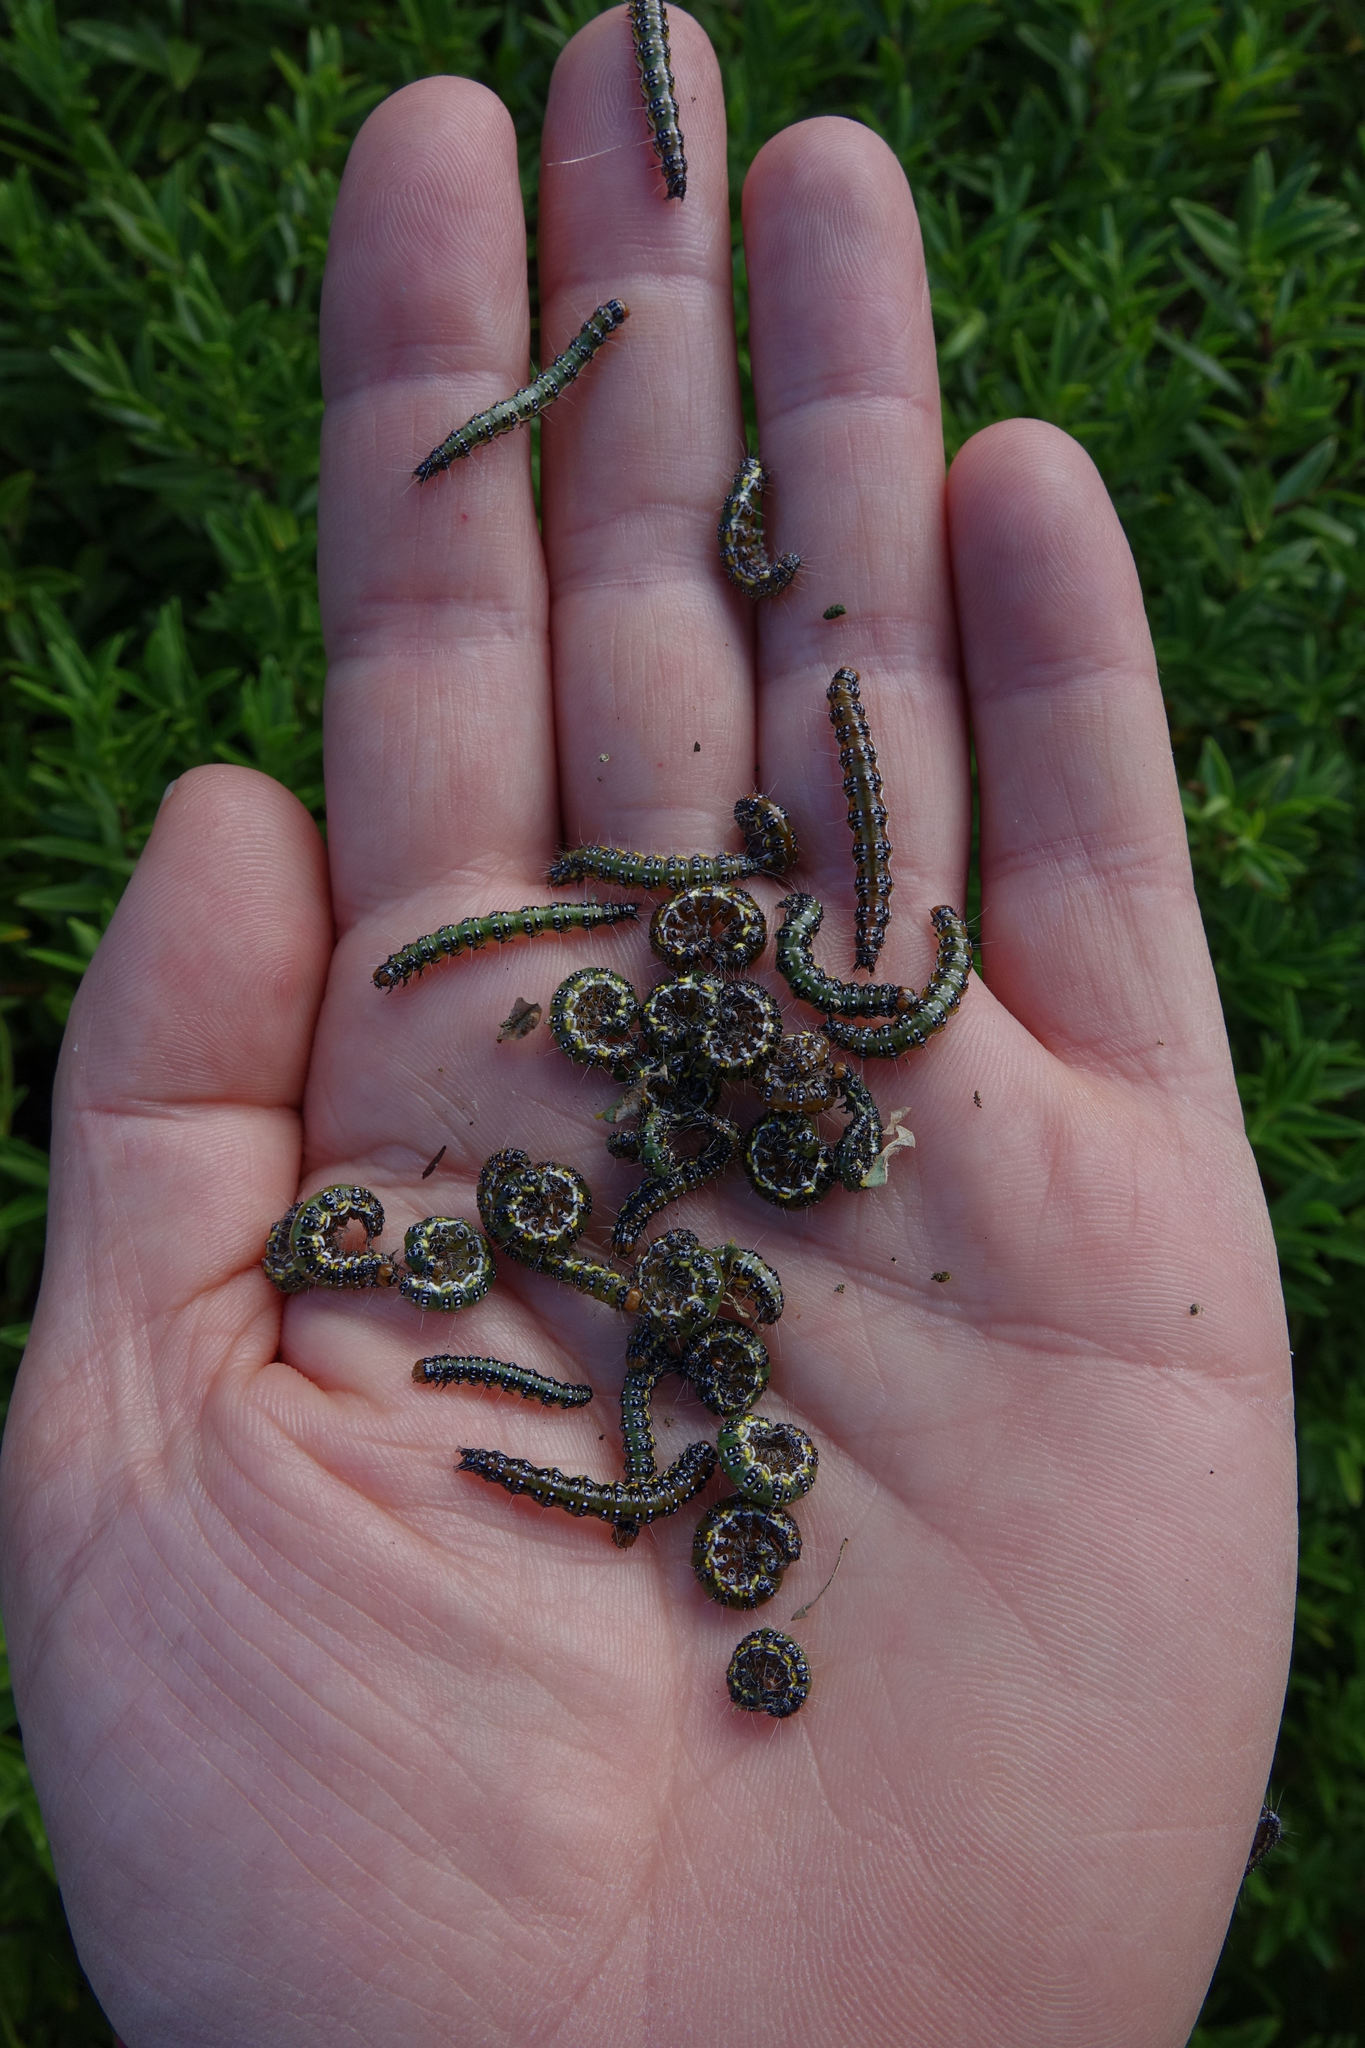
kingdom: Animalia
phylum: Arthropoda
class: Insecta
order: Lepidoptera
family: Crambidae
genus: Uresiphita
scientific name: Uresiphita
